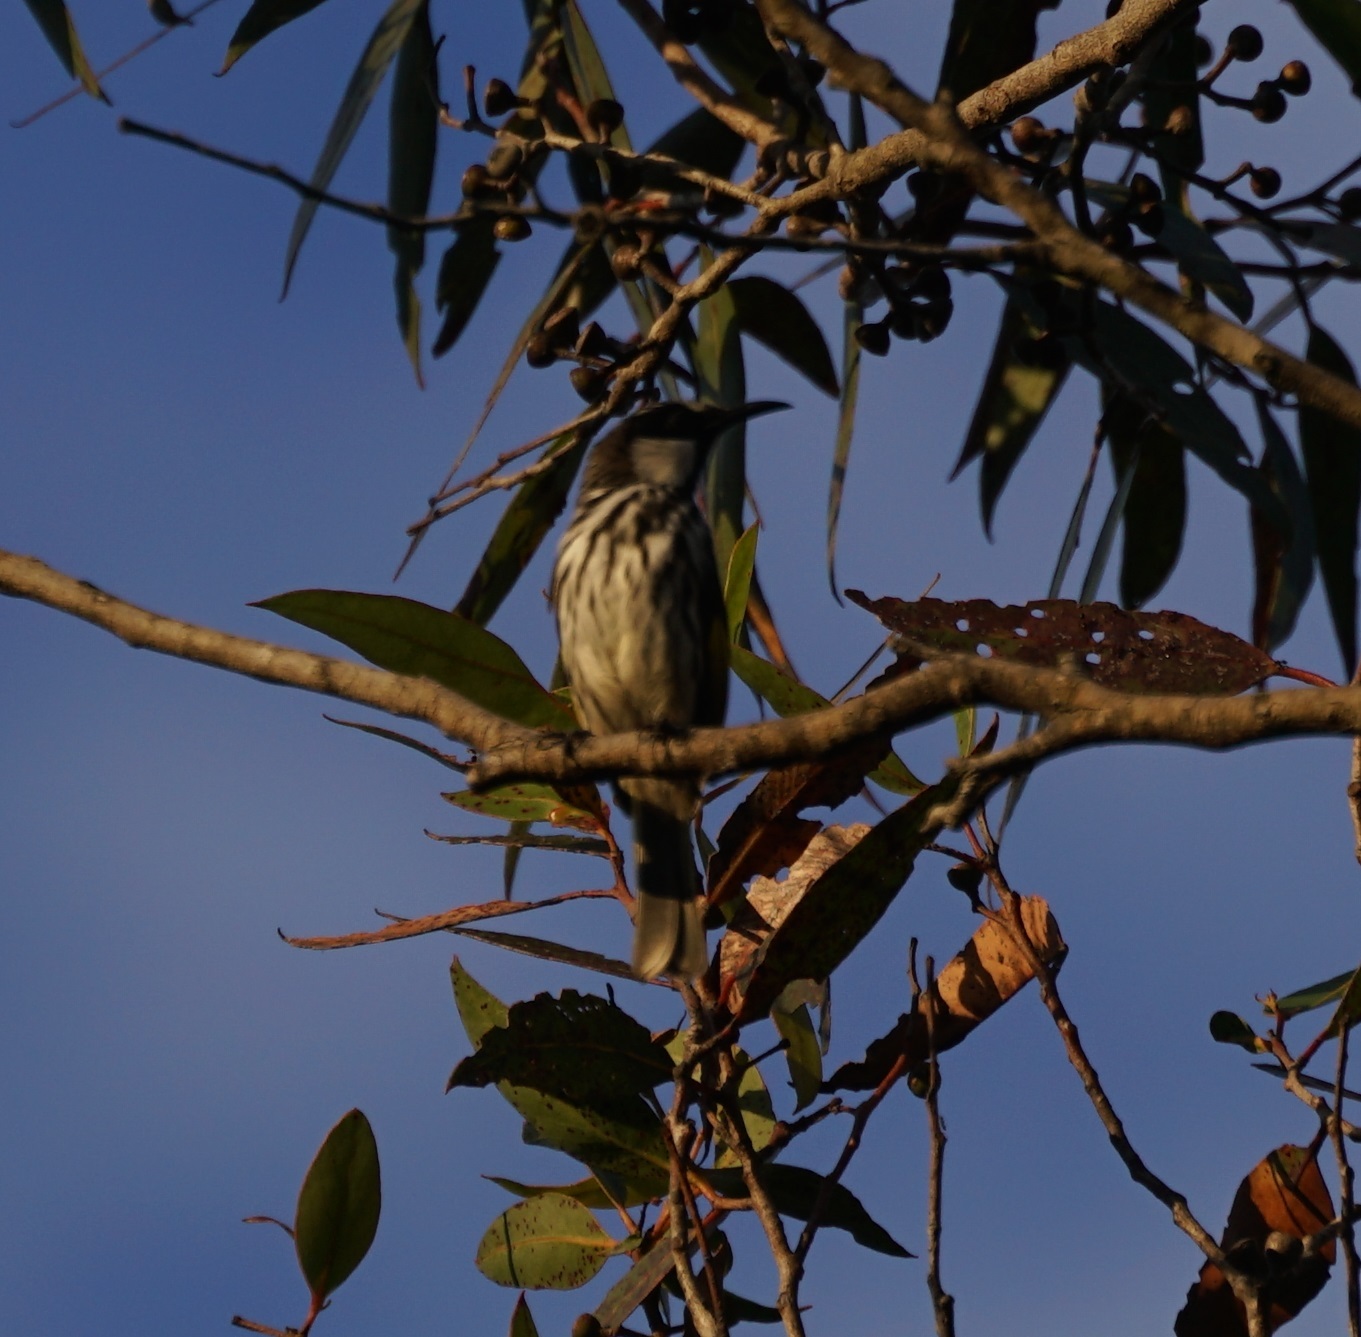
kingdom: Animalia
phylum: Chordata
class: Aves
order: Passeriformes
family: Meliphagidae
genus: Phylidonyris
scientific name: Phylidonyris niger
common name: White-cheeked honeyeater
